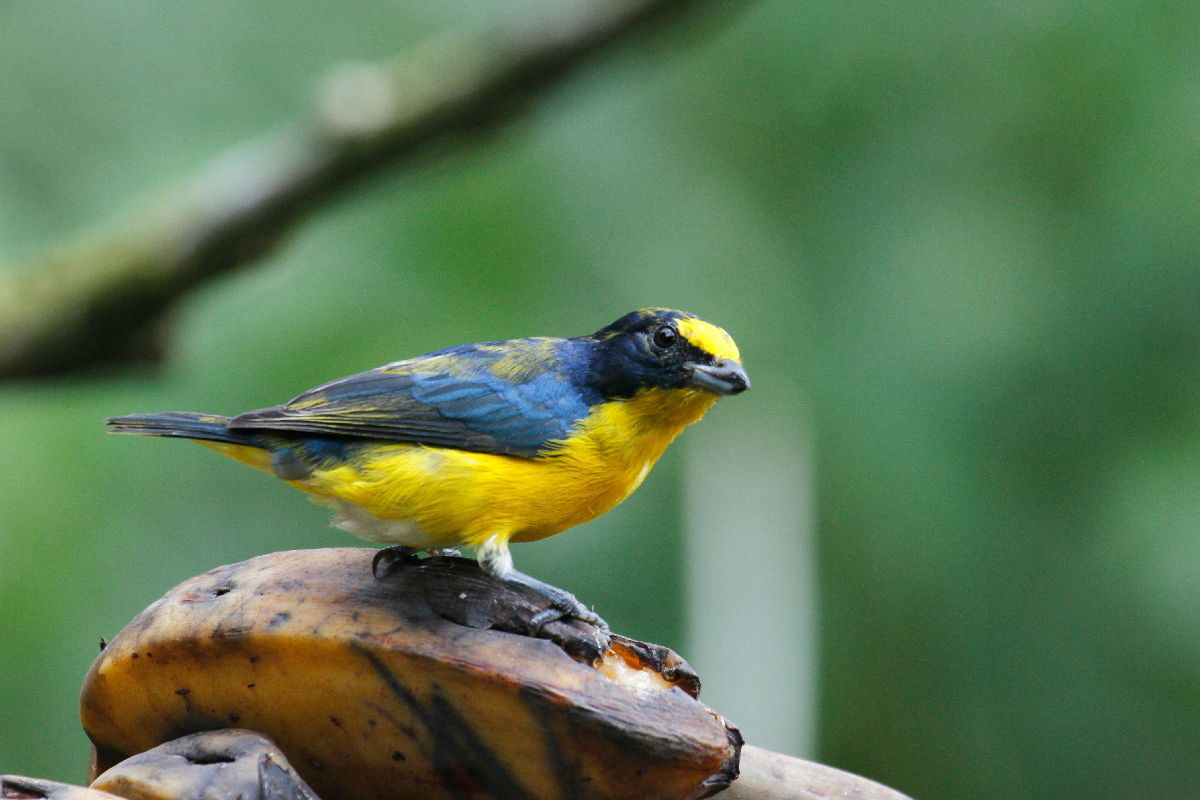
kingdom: Animalia
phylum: Chordata
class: Aves
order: Passeriformes
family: Fringillidae
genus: Euphonia
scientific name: Euphonia hirundinacea
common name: Yellow-throated euphonia
